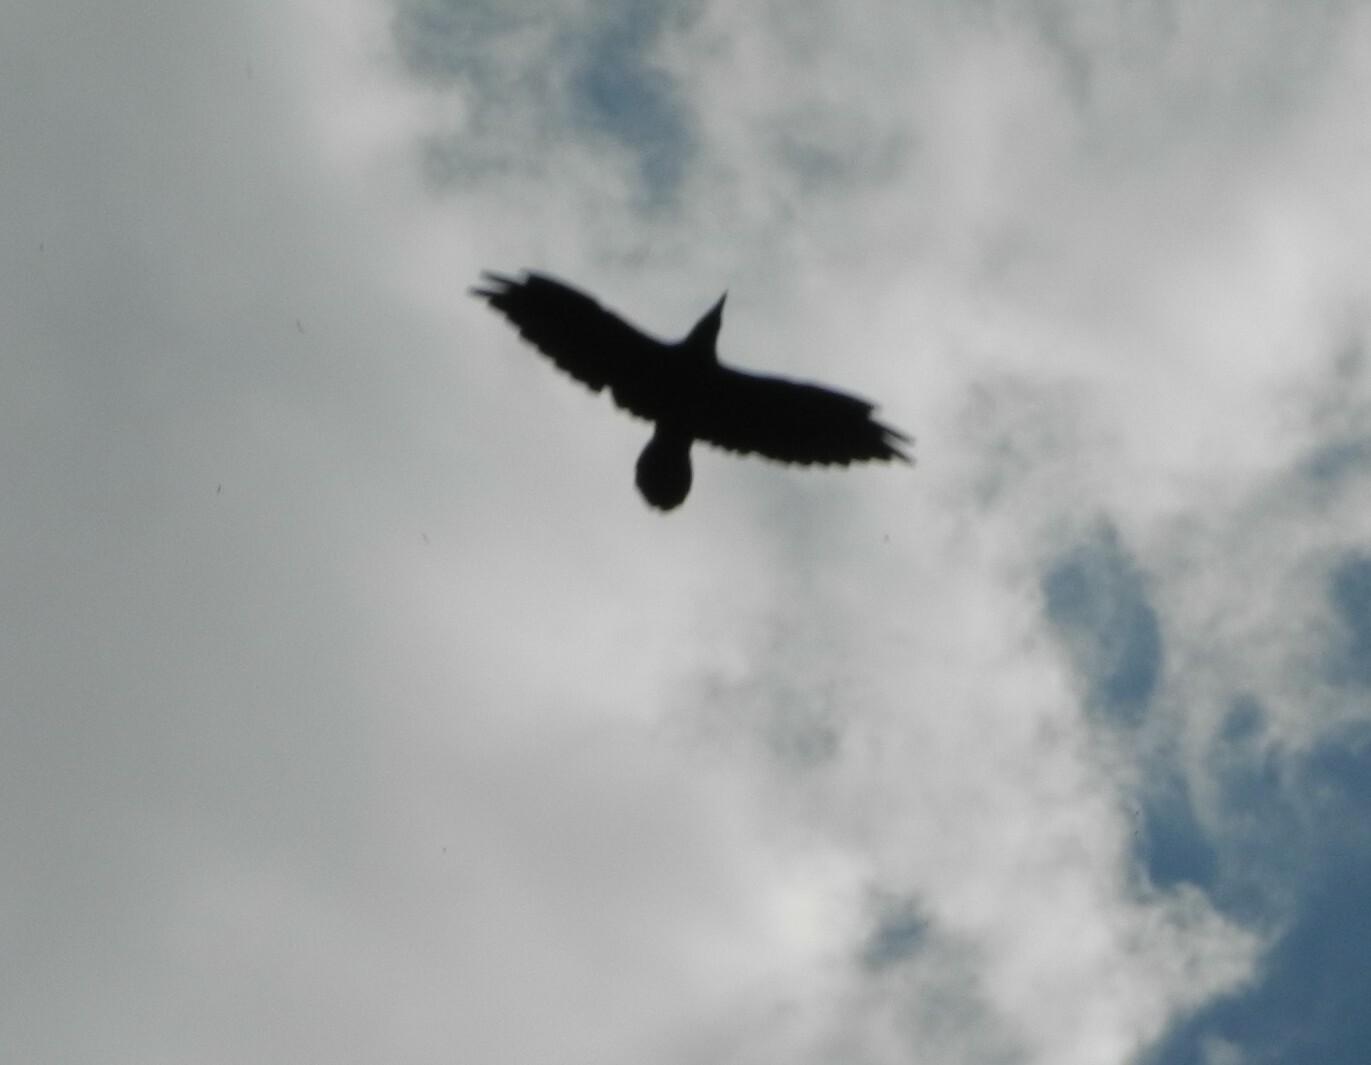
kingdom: Animalia
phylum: Chordata
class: Aves
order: Passeriformes
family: Corvidae
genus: Corvus
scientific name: Corvus corax
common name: Common raven
